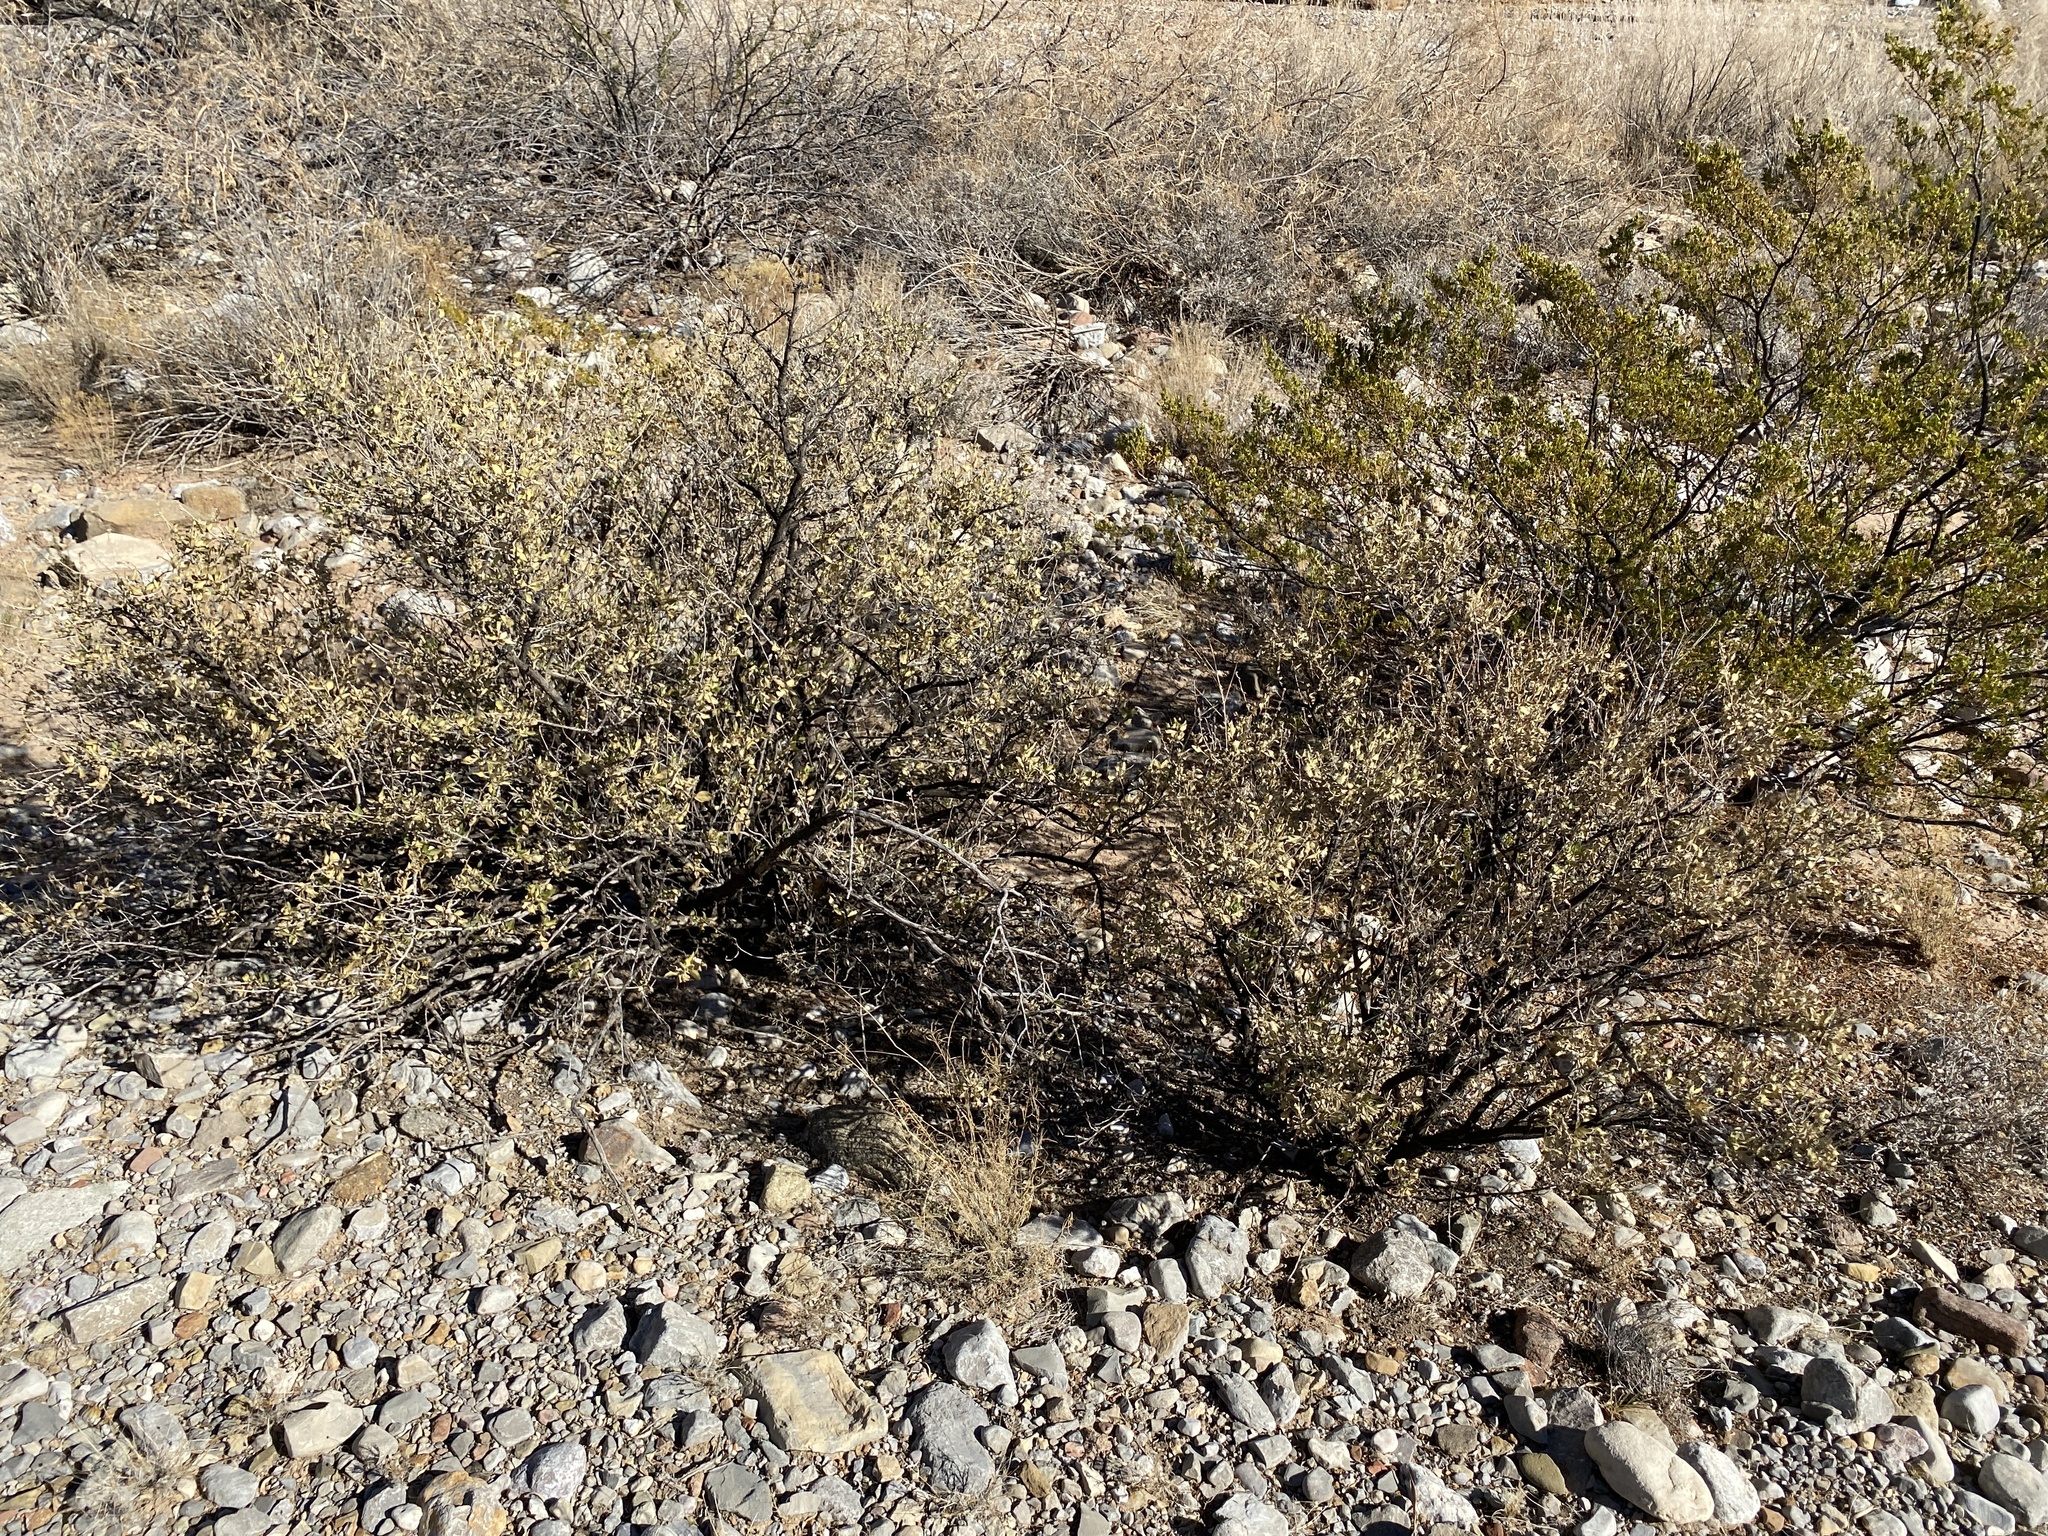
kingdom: Plantae
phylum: Tracheophyta
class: Magnoliopsida
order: Asterales
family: Asteraceae
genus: Flourensia
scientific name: Flourensia cernua
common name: Varnishbush
